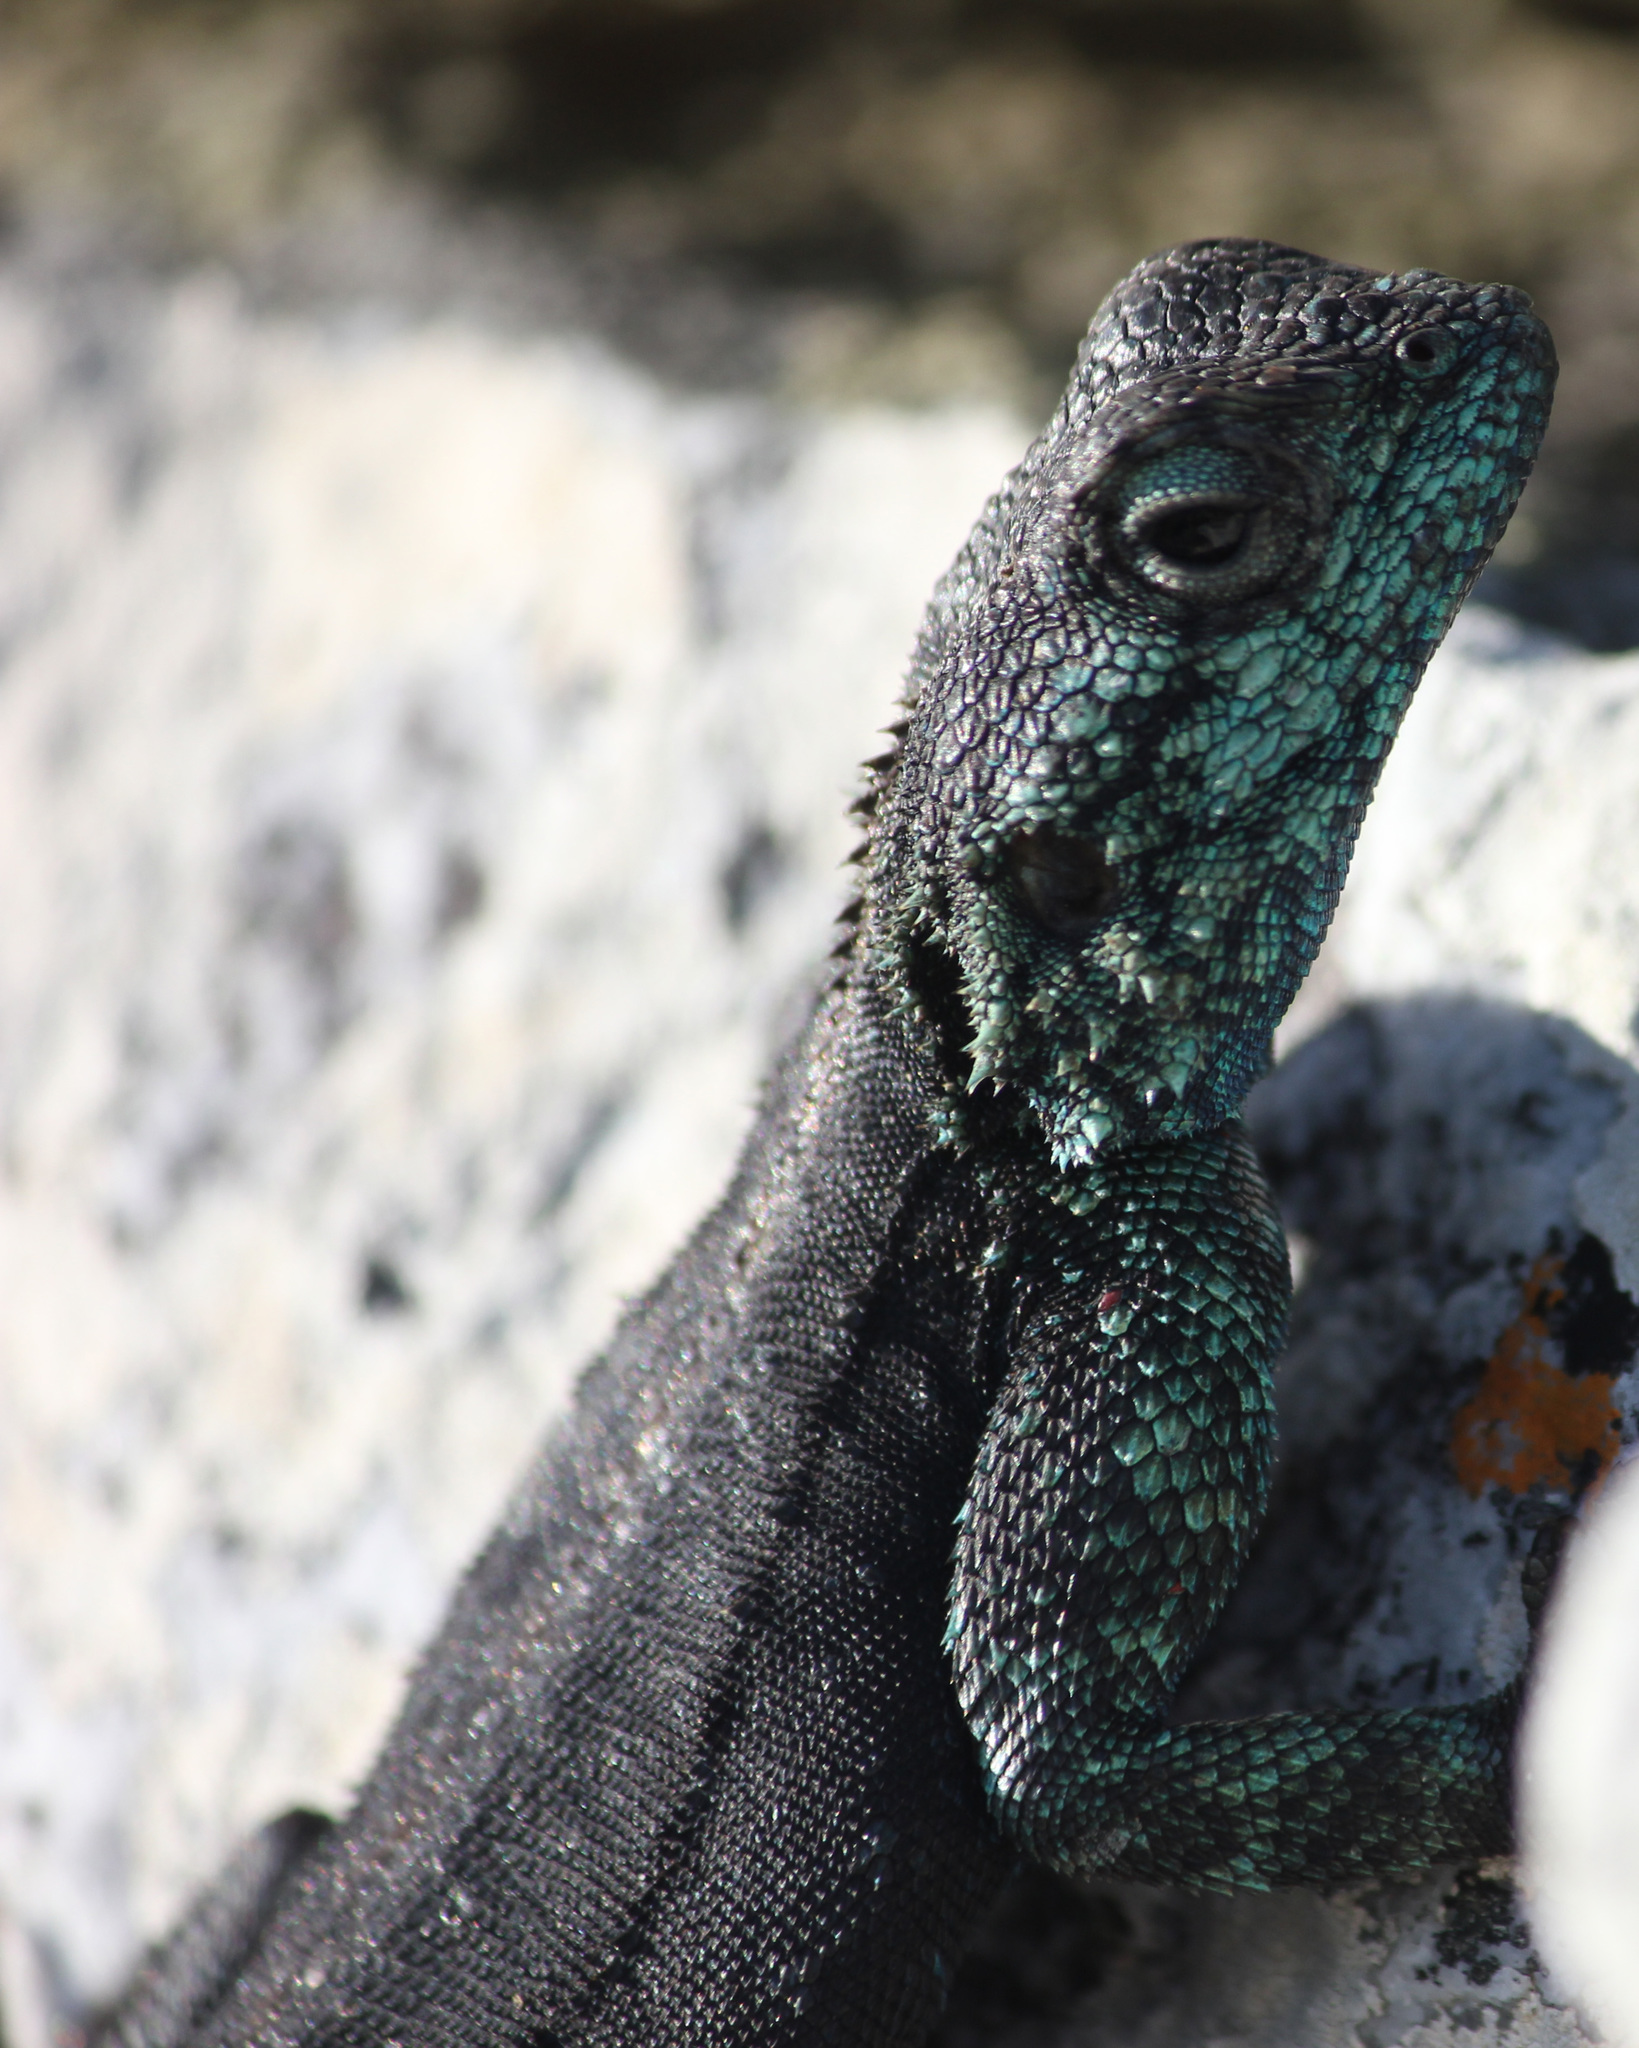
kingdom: Animalia
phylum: Chordata
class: Squamata
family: Agamidae
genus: Agama
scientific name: Agama atra
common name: Southern african rock agama
